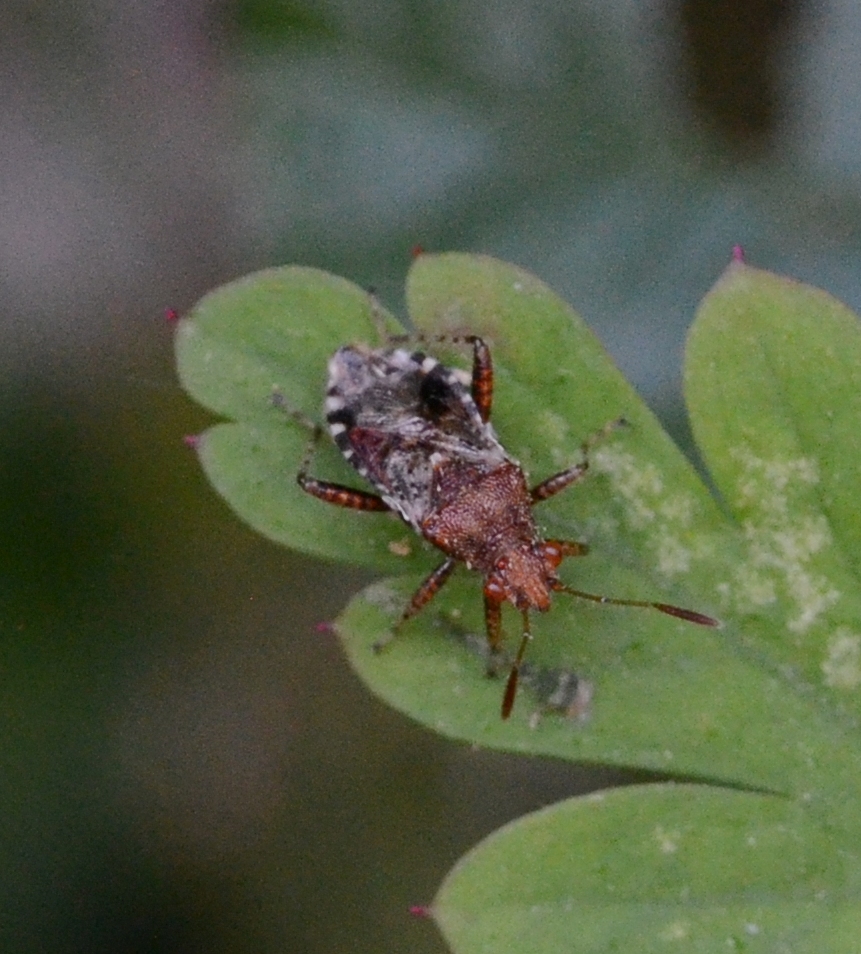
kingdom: Animalia
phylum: Arthropoda
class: Insecta
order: Hemiptera
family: Rhopalidae
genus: Rhopalus
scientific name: Rhopalus subrufus
